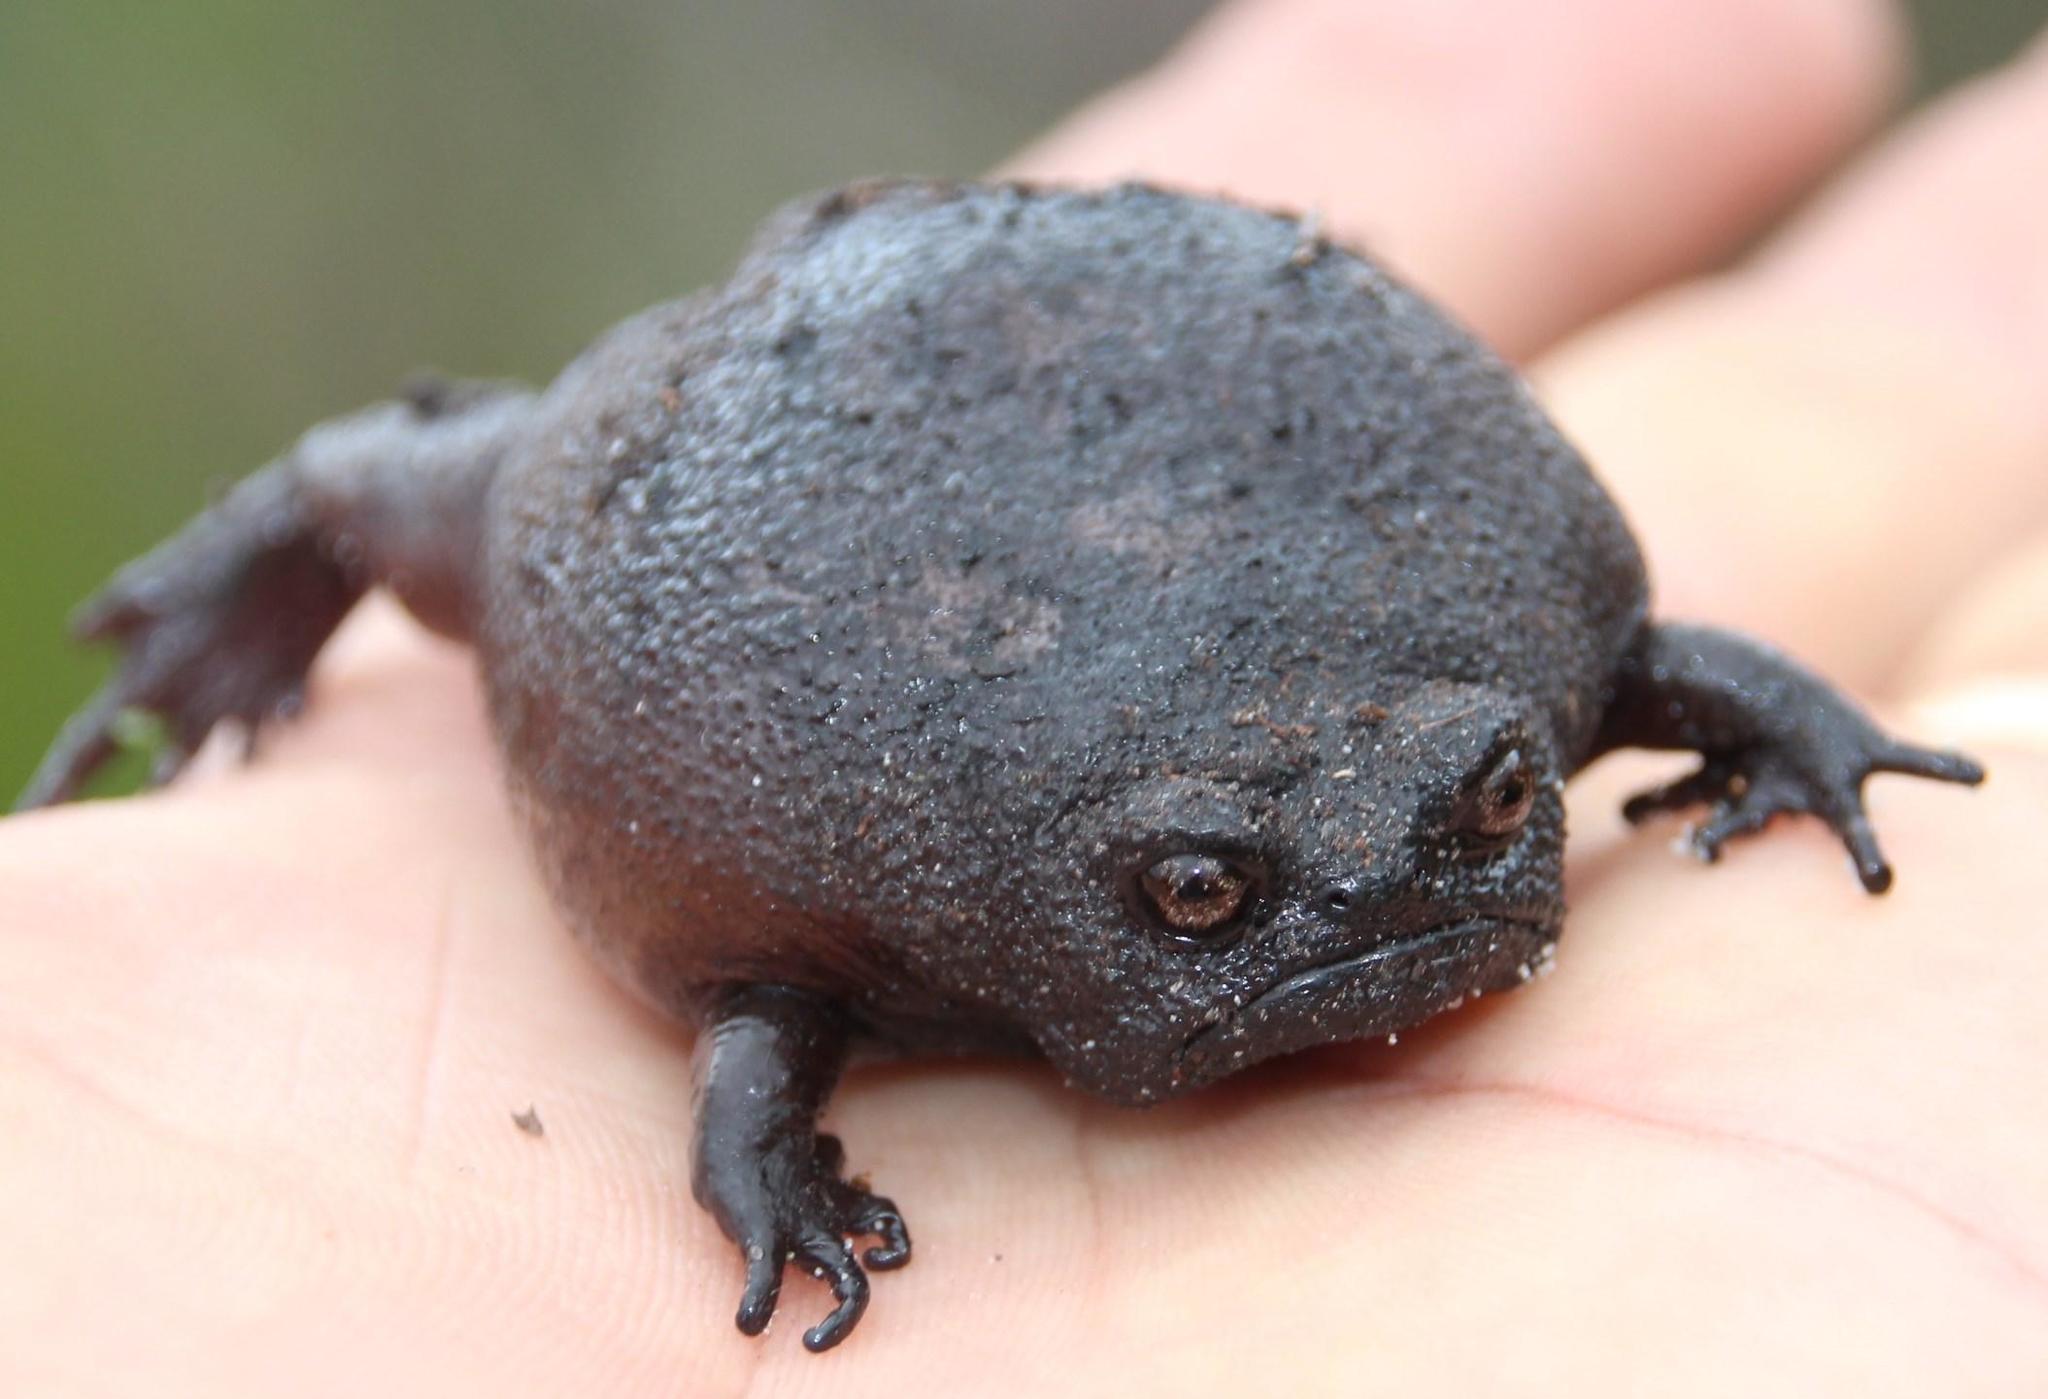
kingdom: Animalia
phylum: Chordata
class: Amphibia
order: Anura
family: Brevicipitidae
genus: Breviceps
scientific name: Breviceps fuscus
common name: Black rain frog
